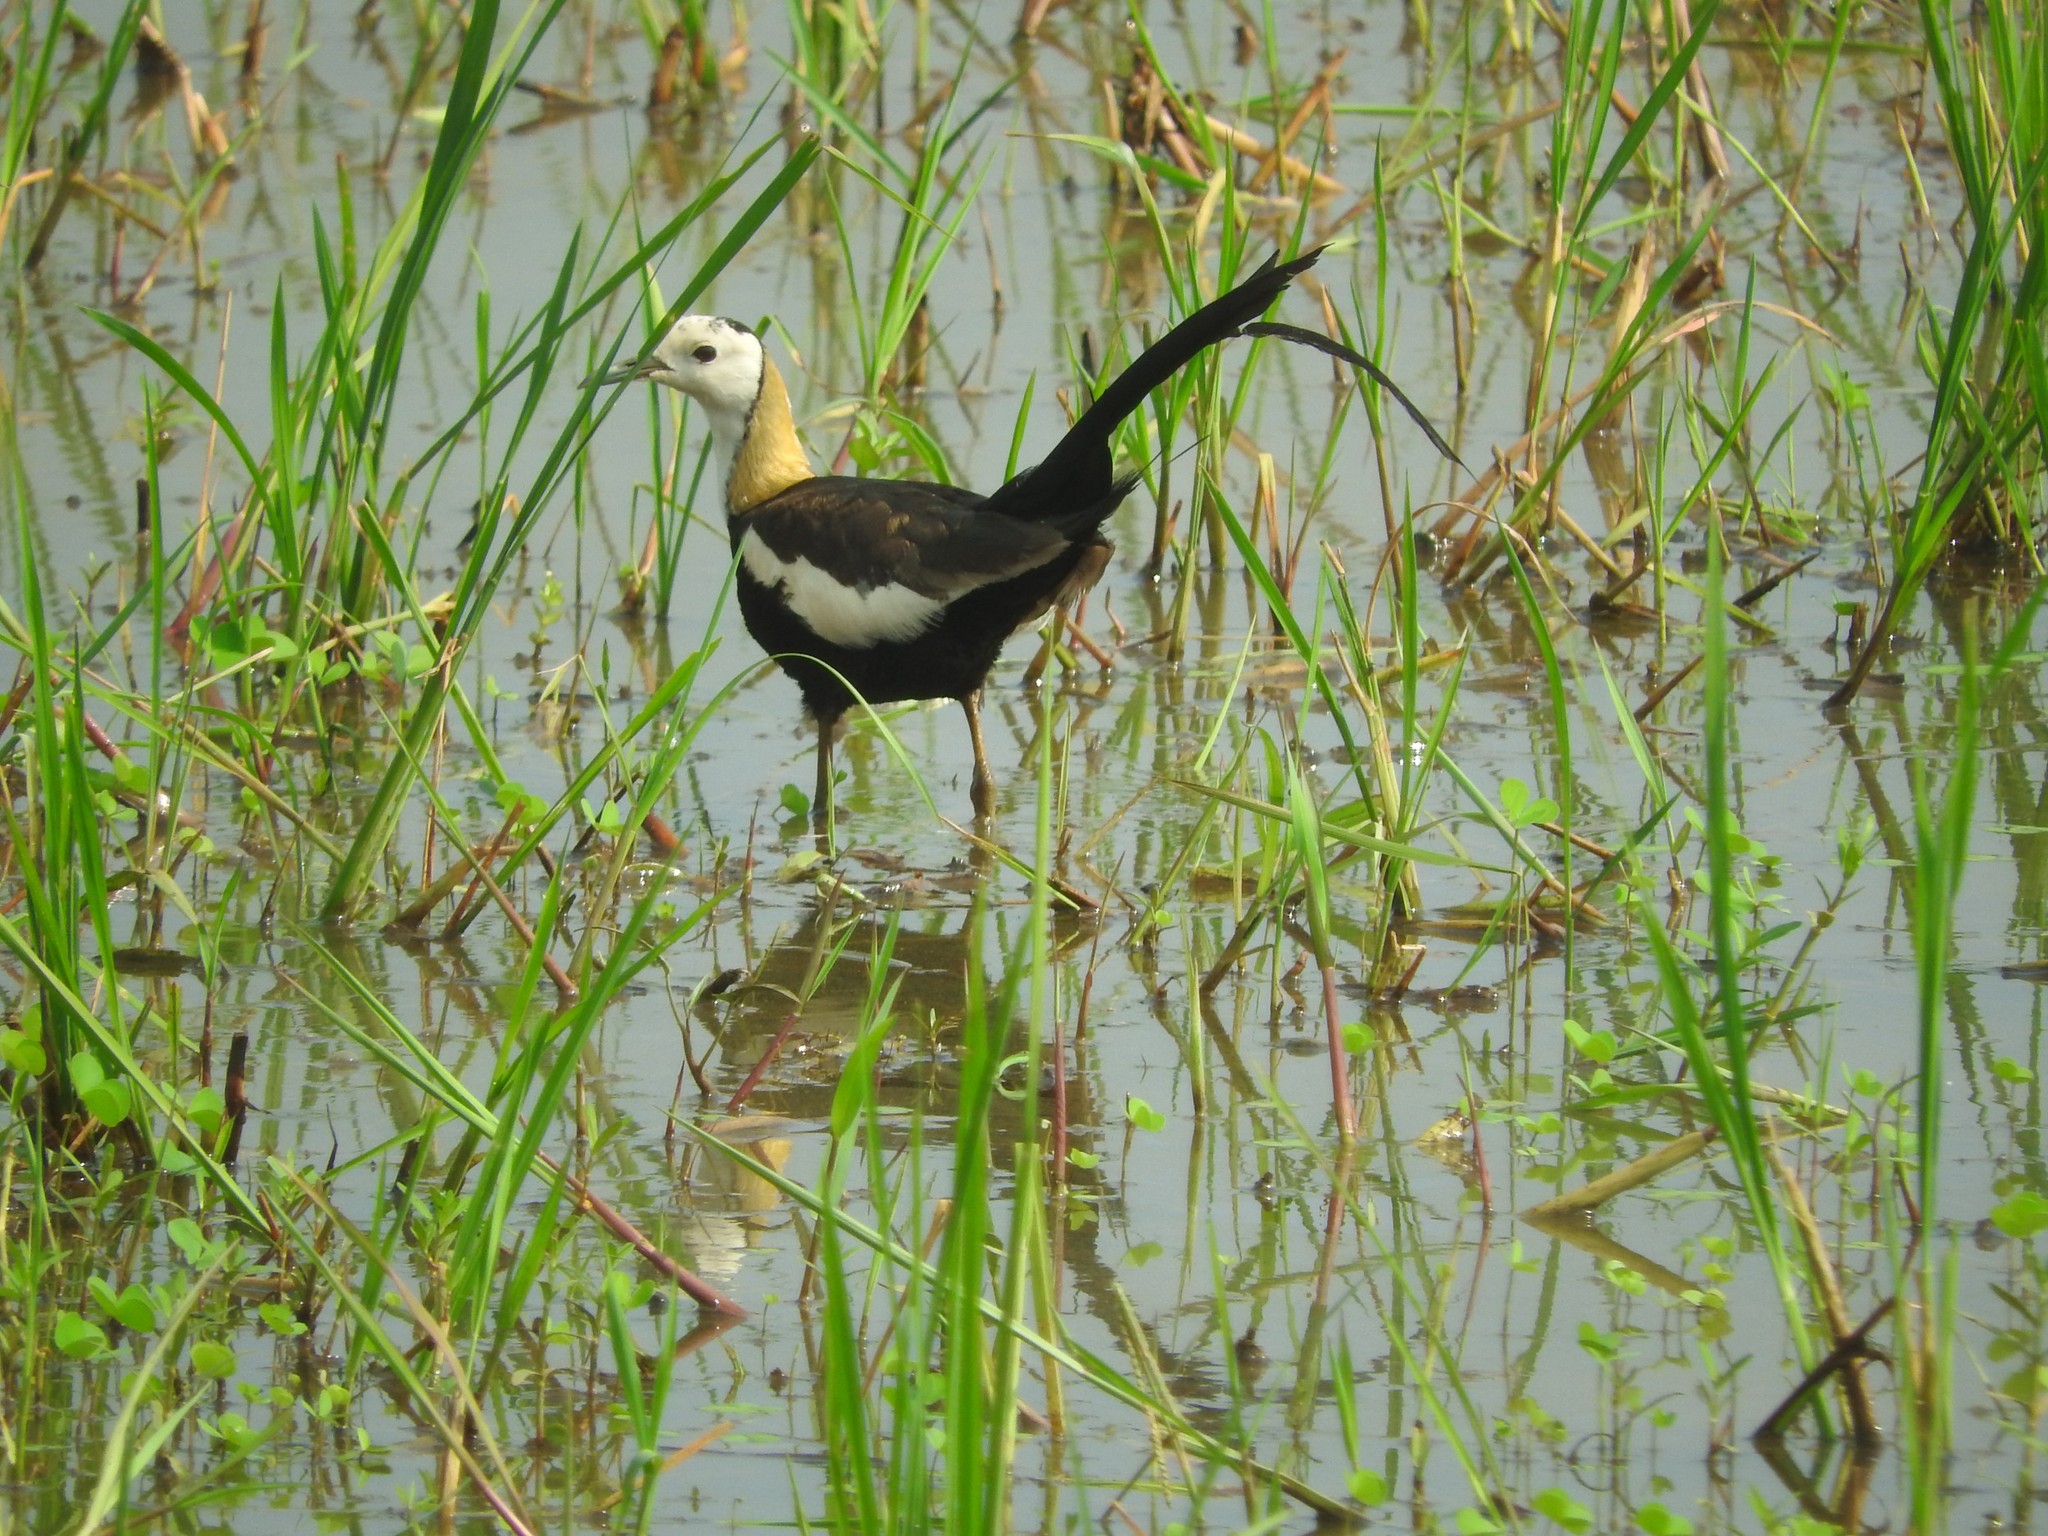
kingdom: Animalia
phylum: Chordata
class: Aves
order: Charadriiformes
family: Jacanidae
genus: Hydrophasianus
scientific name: Hydrophasianus chirurgus
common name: Pheasant-tailed jacana
